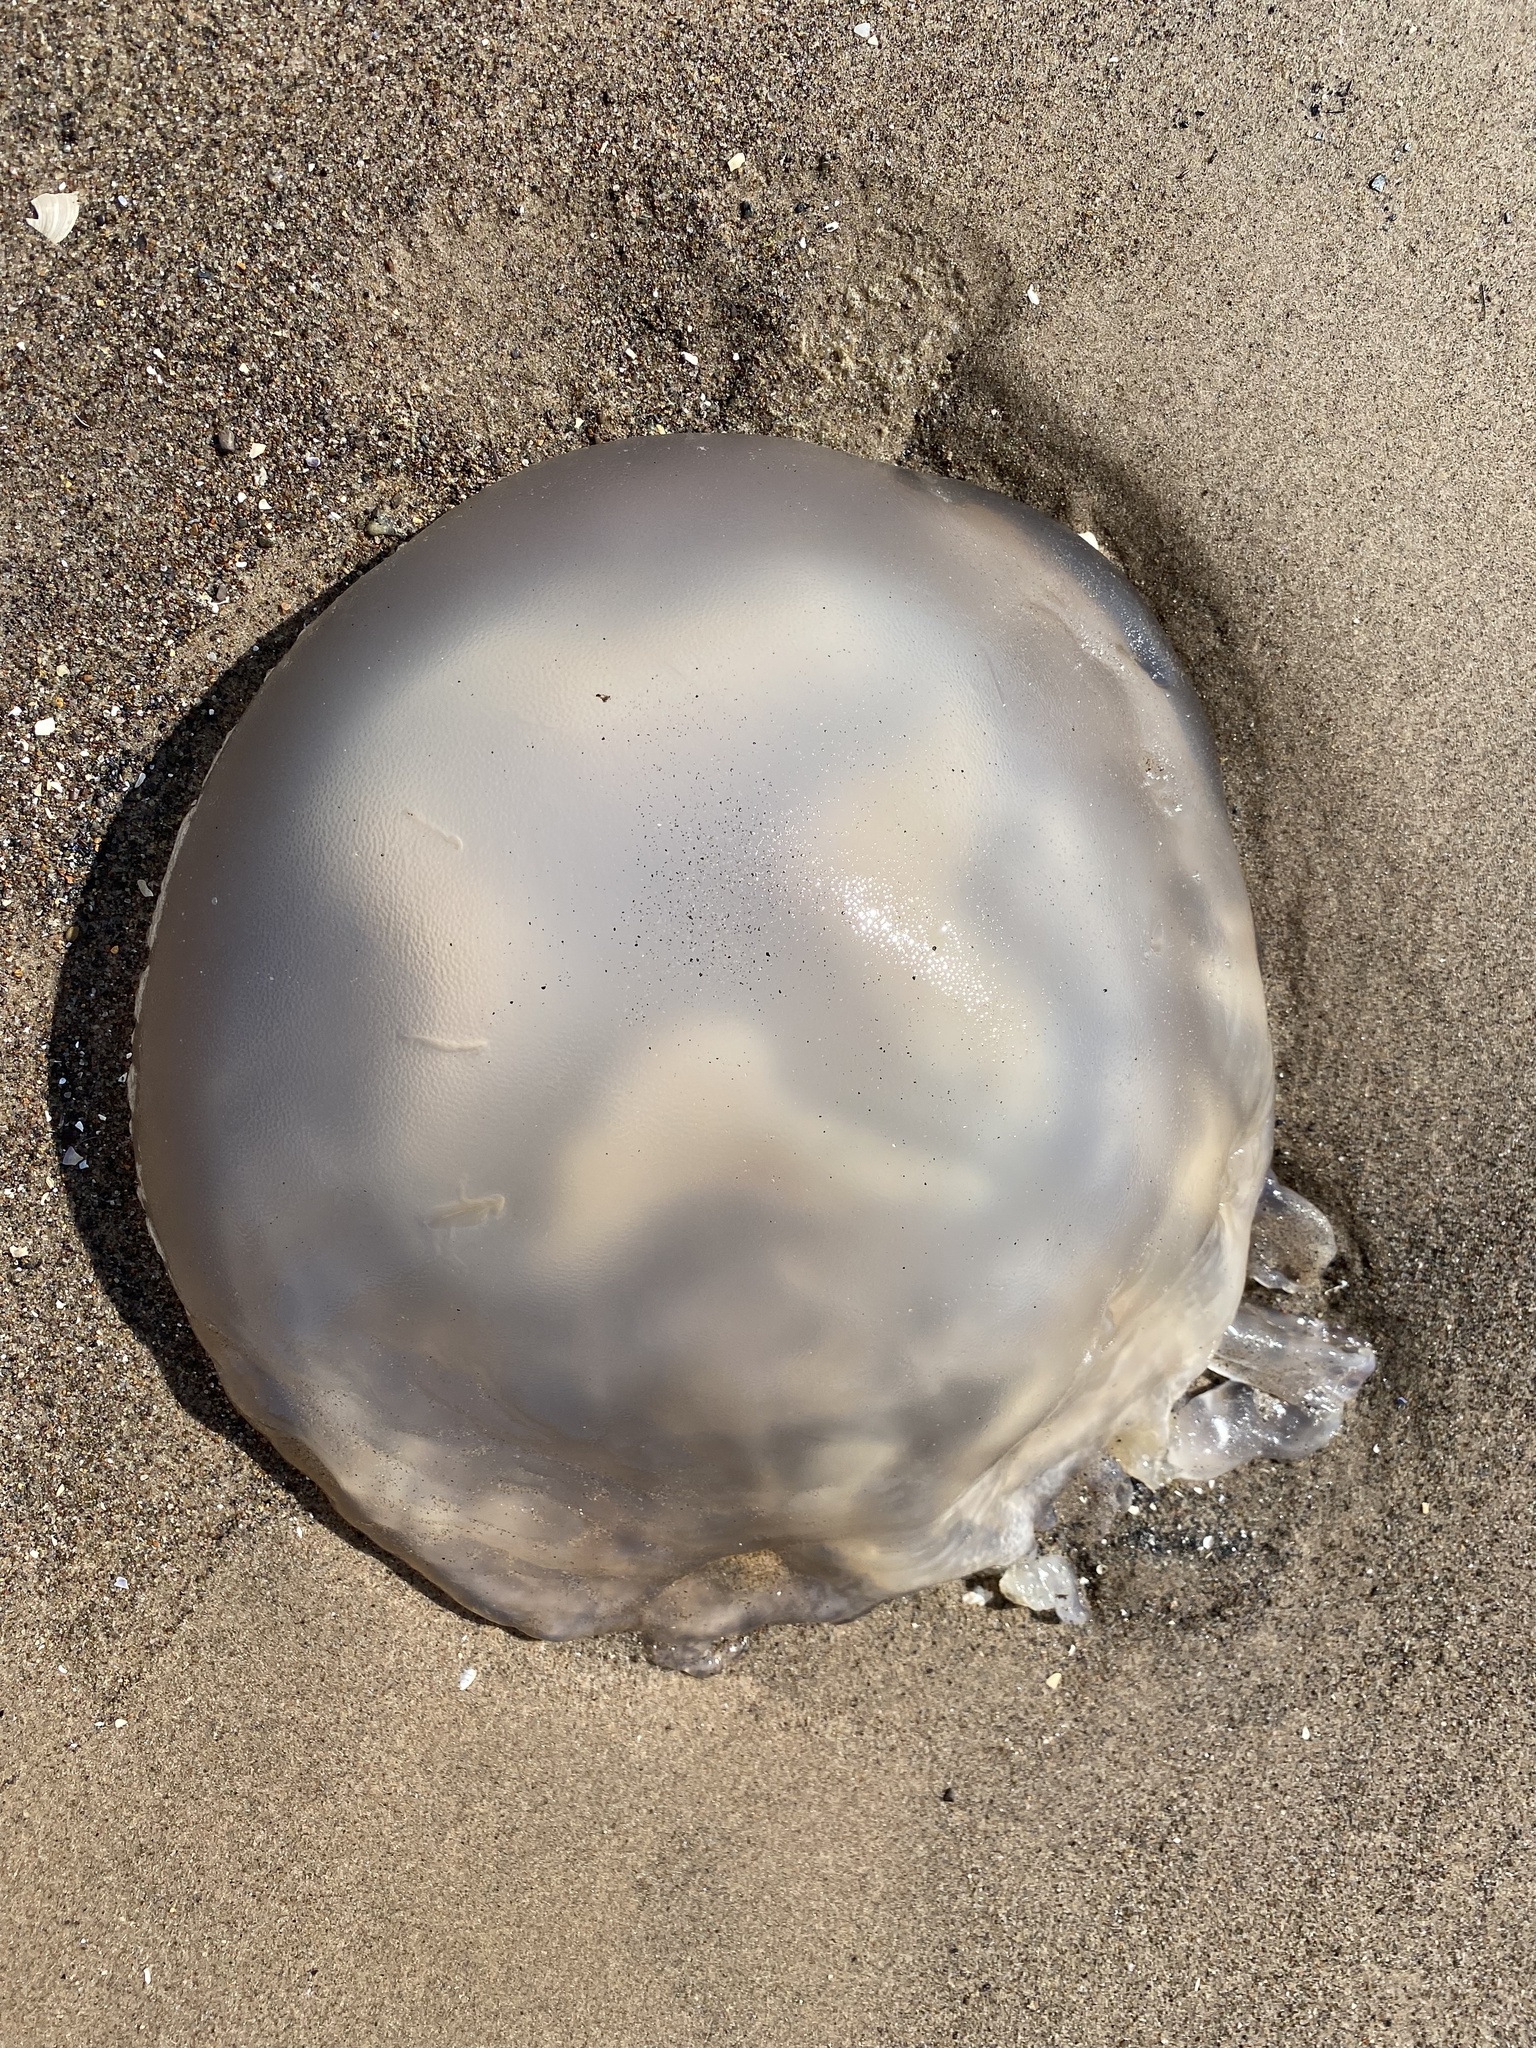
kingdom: Animalia
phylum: Cnidaria
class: Scyphozoa
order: Rhizostomeae
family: Rhizostomatidae
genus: Rhizostoma
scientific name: Rhizostoma octopus
